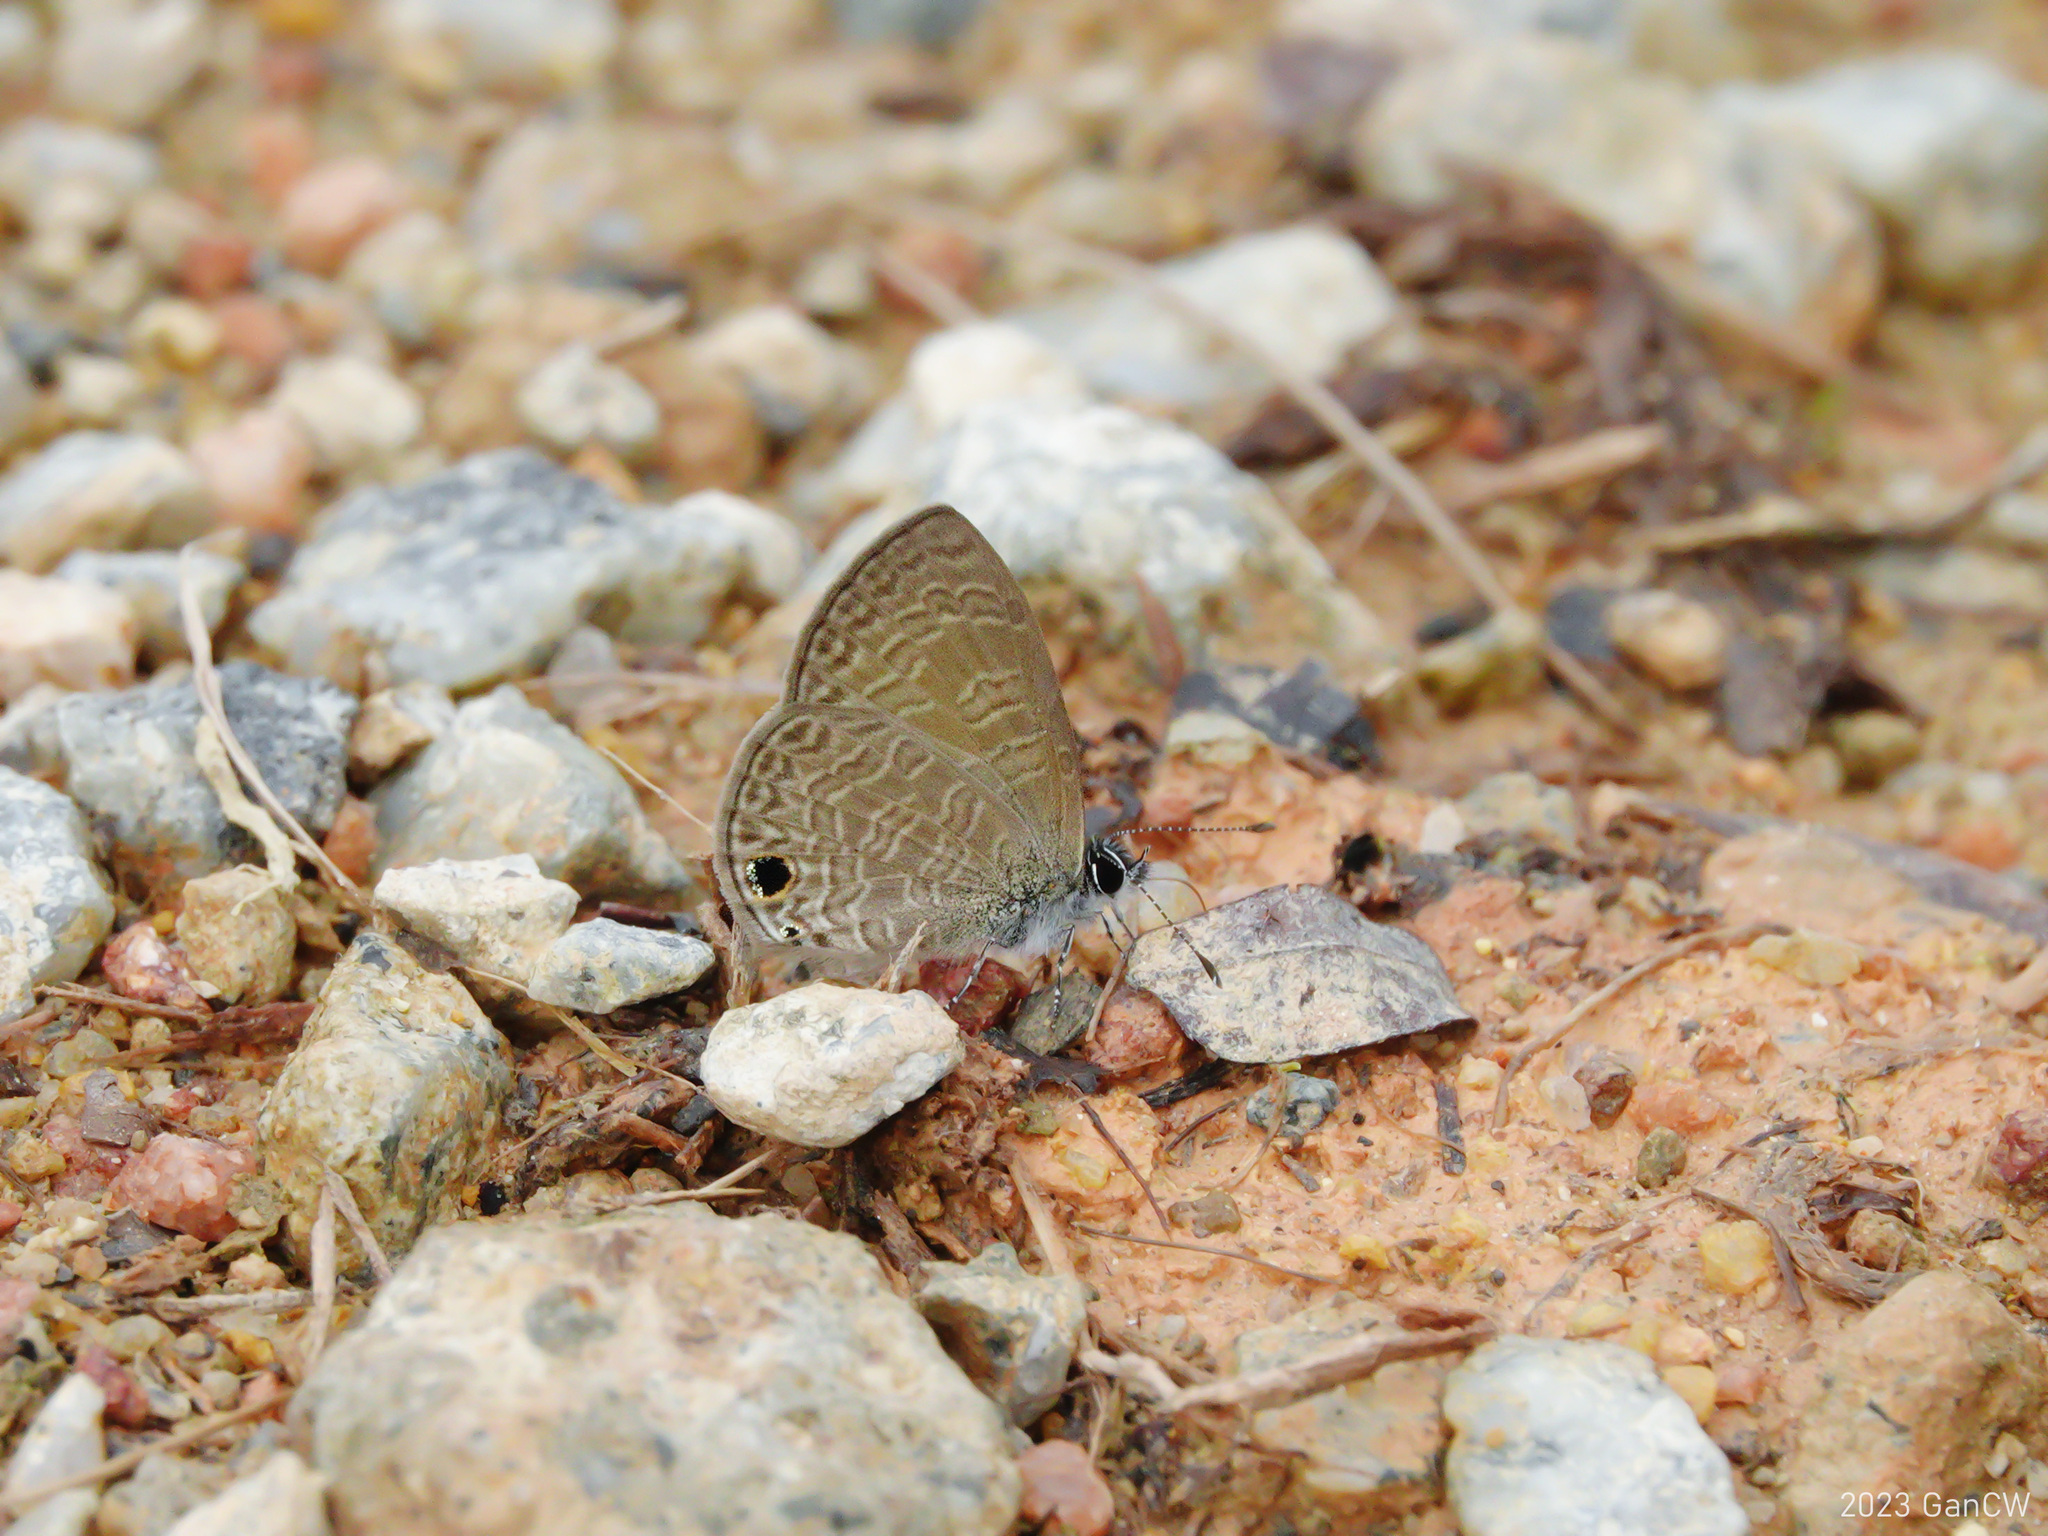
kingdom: Animalia
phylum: Arthropoda
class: Insecta
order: Lepidoptera
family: Lycaenidae
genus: Prosotas
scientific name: Prosotas dubiosa
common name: Tailless lineblue
